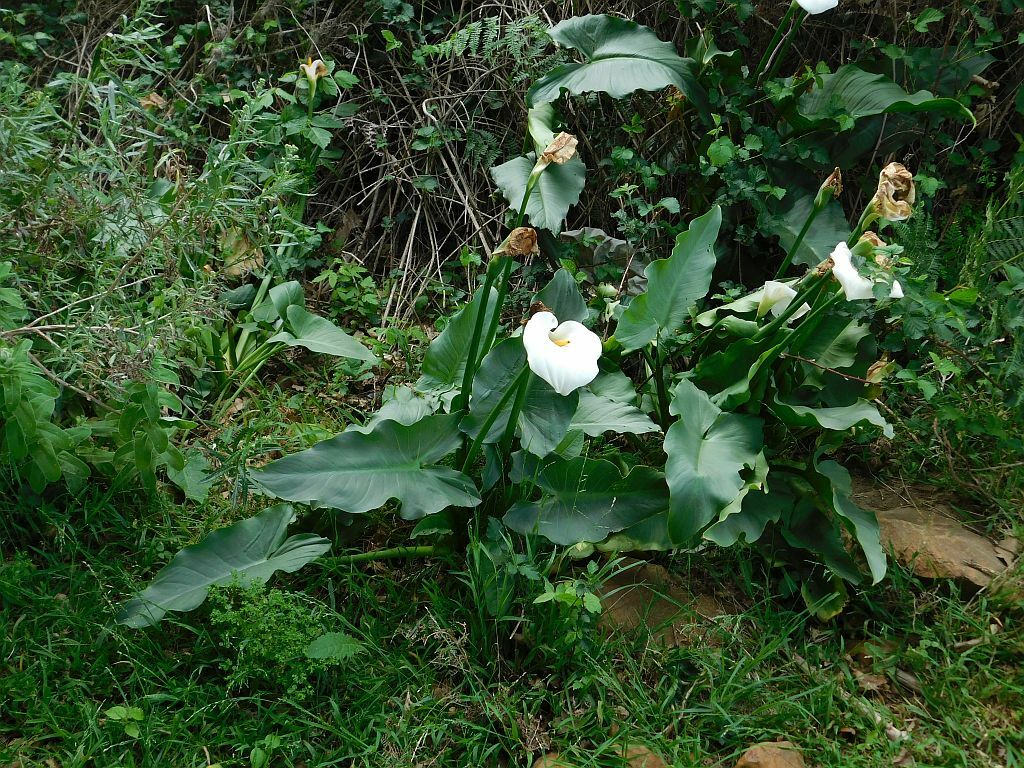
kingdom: Plantae
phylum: Tracheophyta
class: Liliopsida
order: Alismatales
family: Araceae
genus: Zantedeschia
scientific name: Zantedeschia aethiopica
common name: Altar-lily
